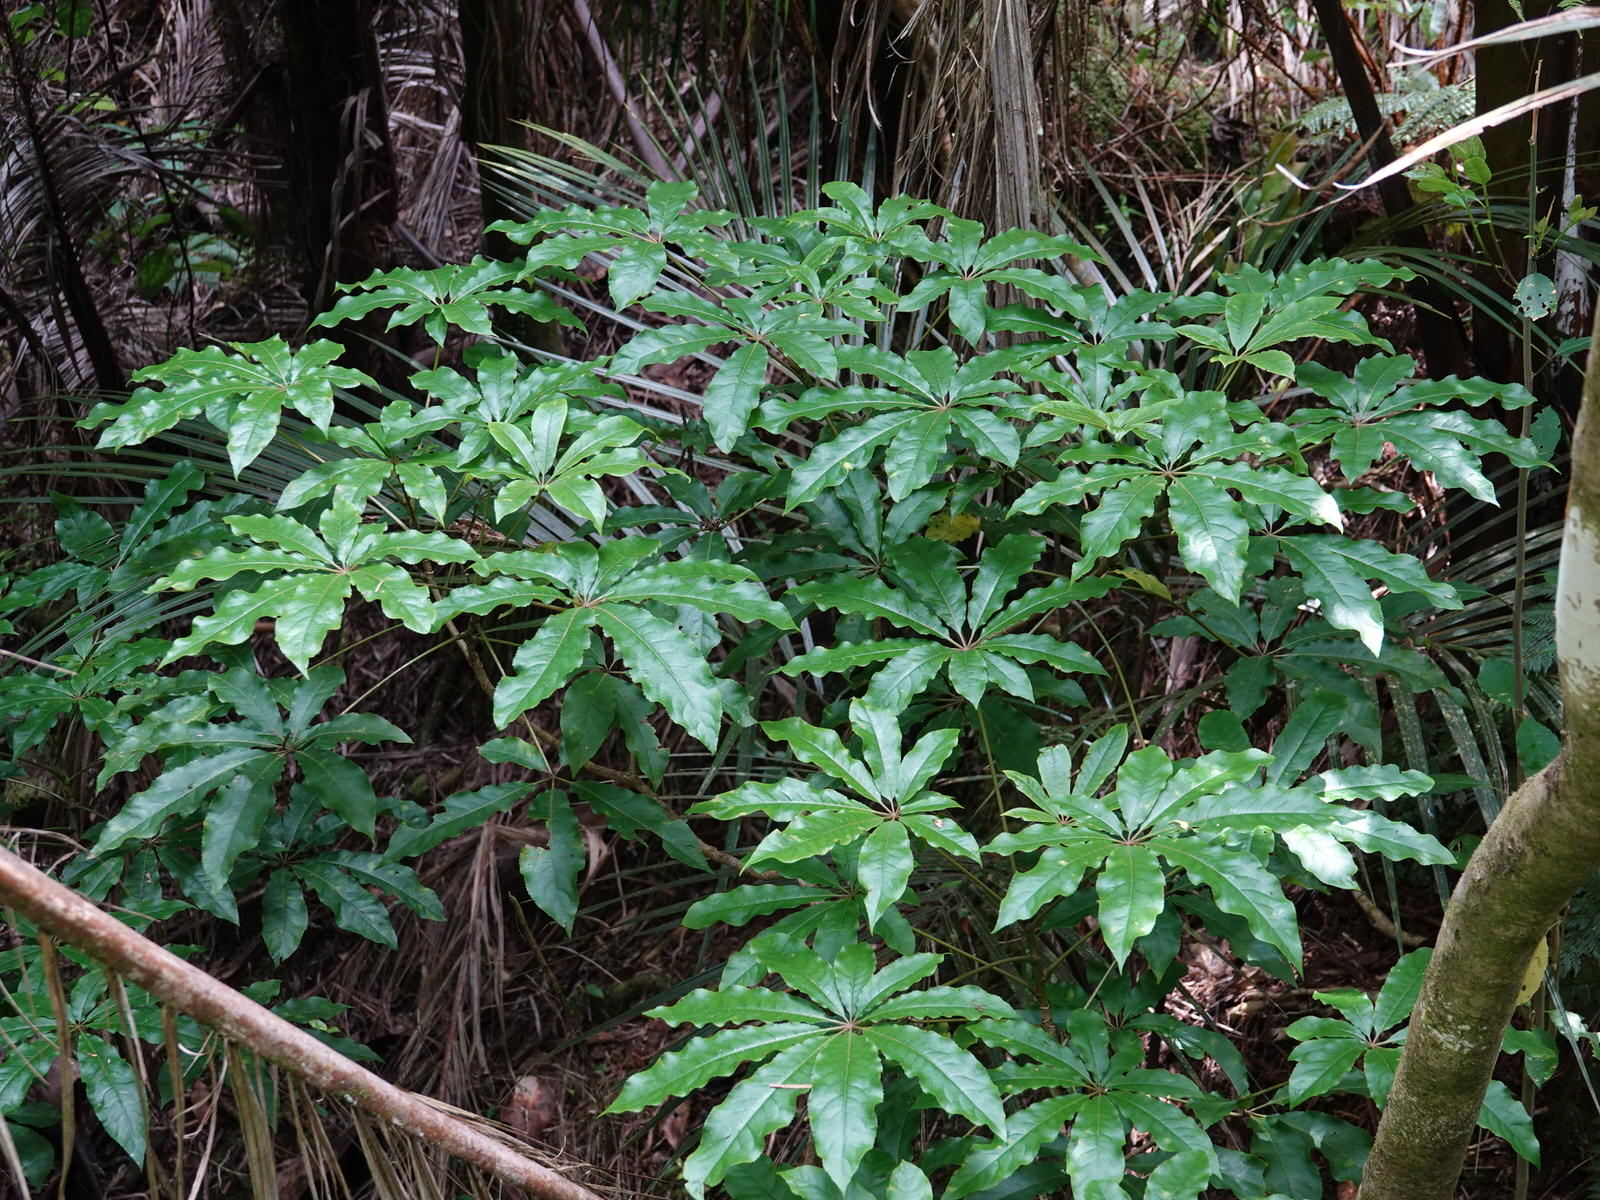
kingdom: Plantae
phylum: Tracheophyta
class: Magnoliopsida
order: Apiales
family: Araliaceae
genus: Schefflera
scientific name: Schefflera digitata
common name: Pate
